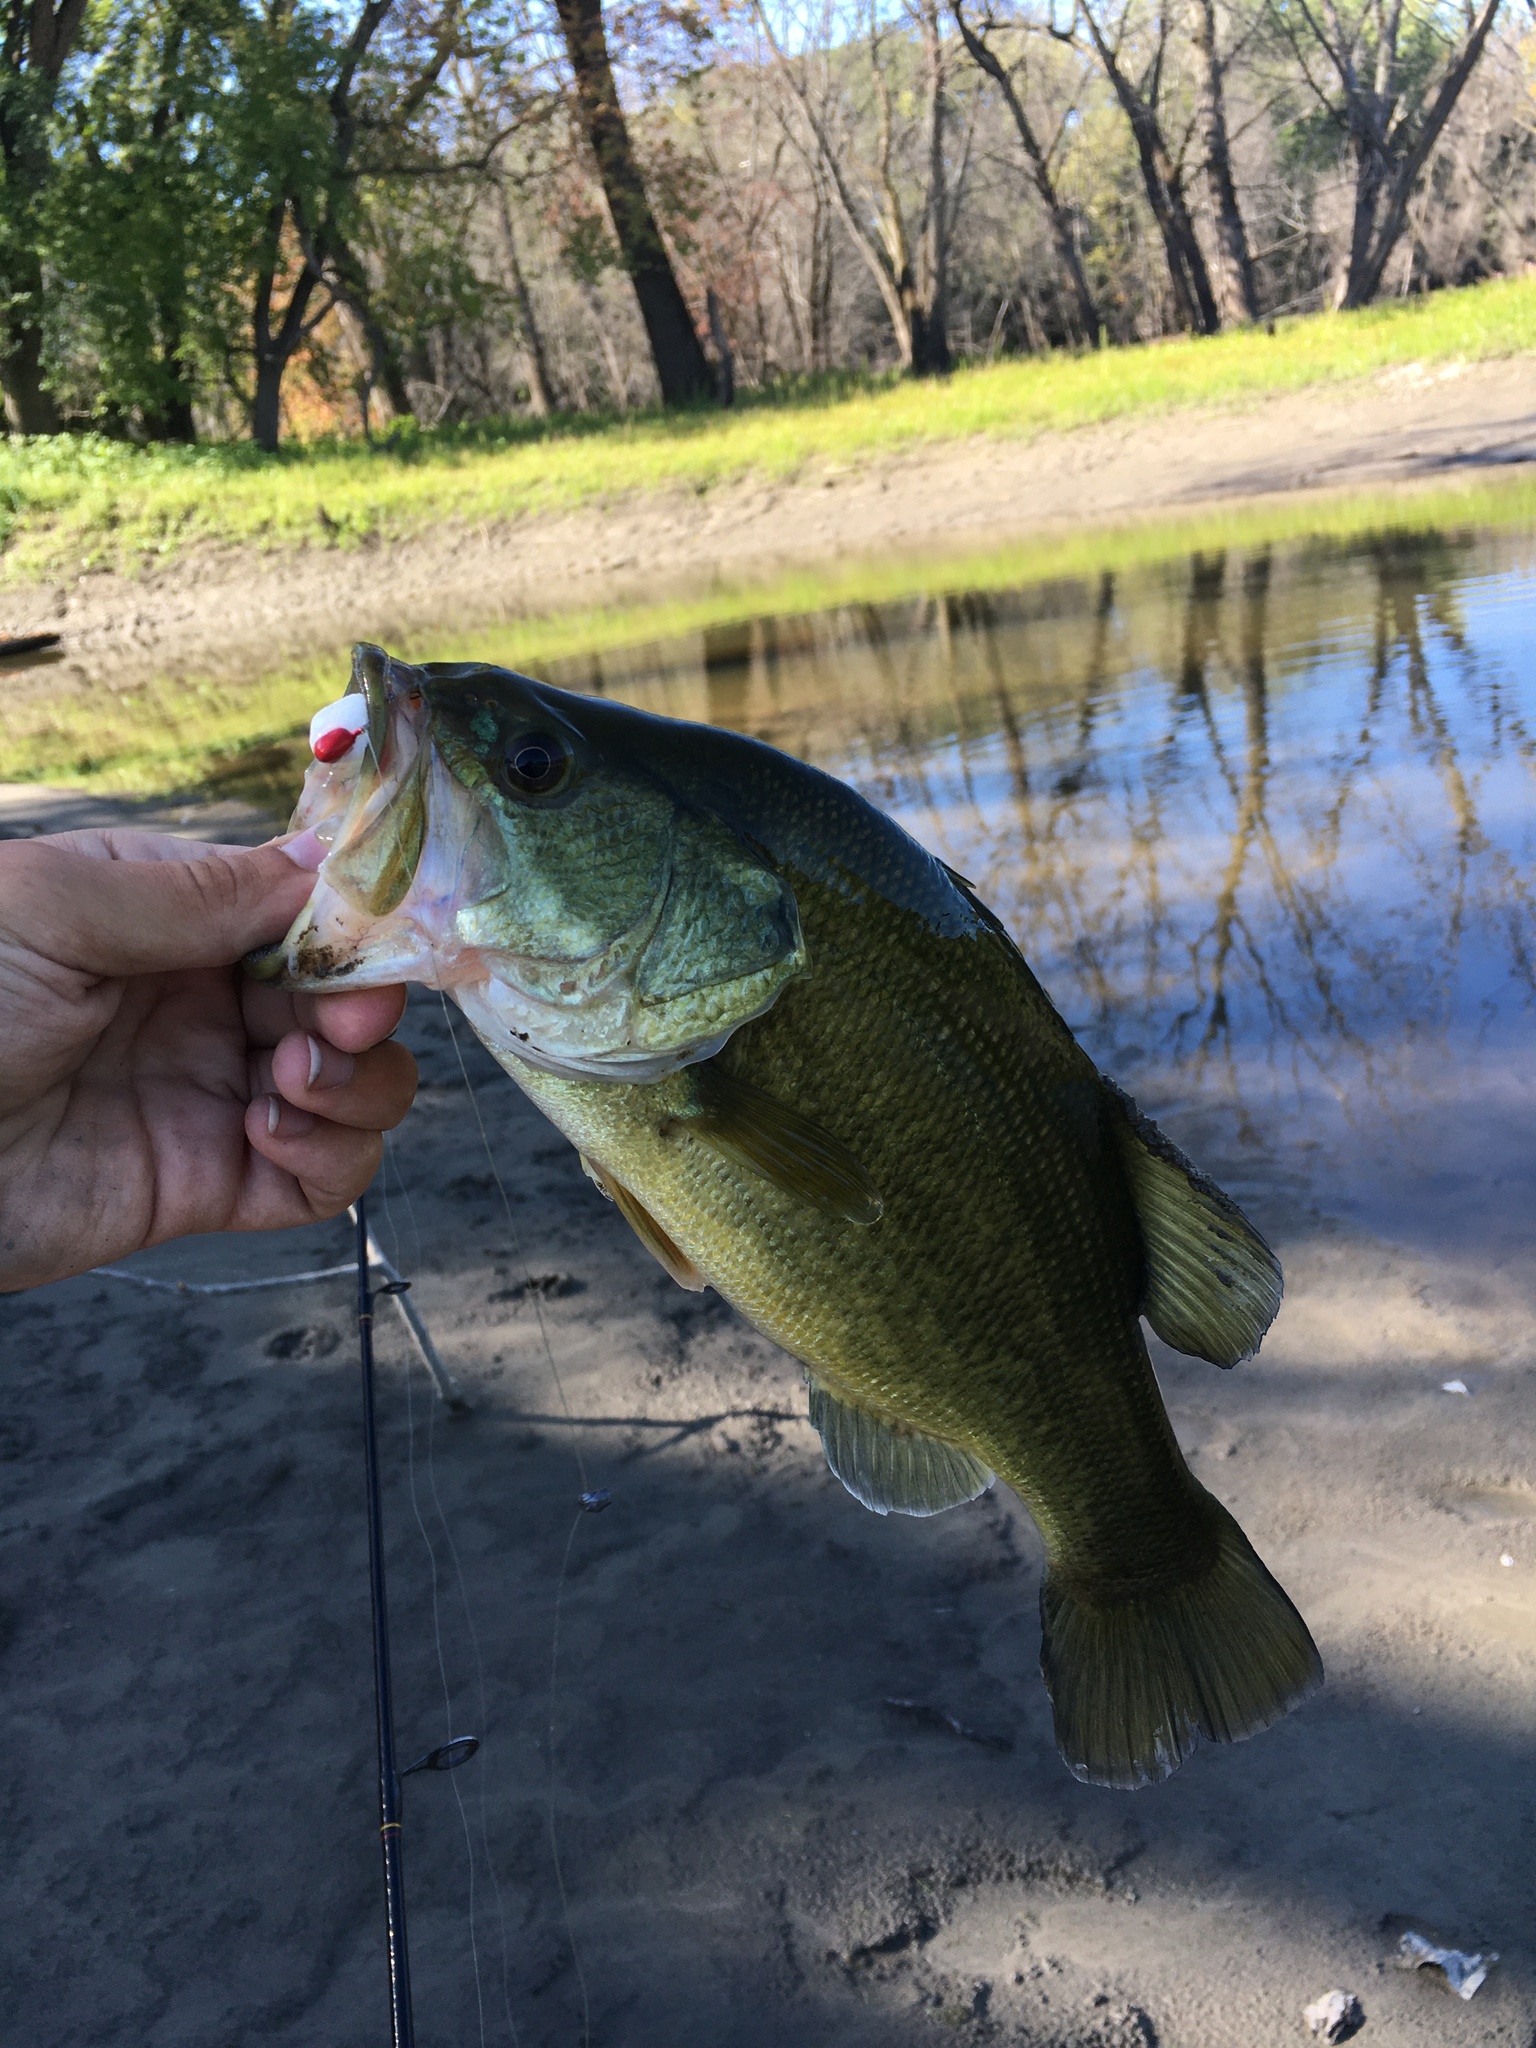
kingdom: Animalia
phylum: Chordata
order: Perciformes
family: Centrarchidae
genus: Micropterus
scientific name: Micropterus
